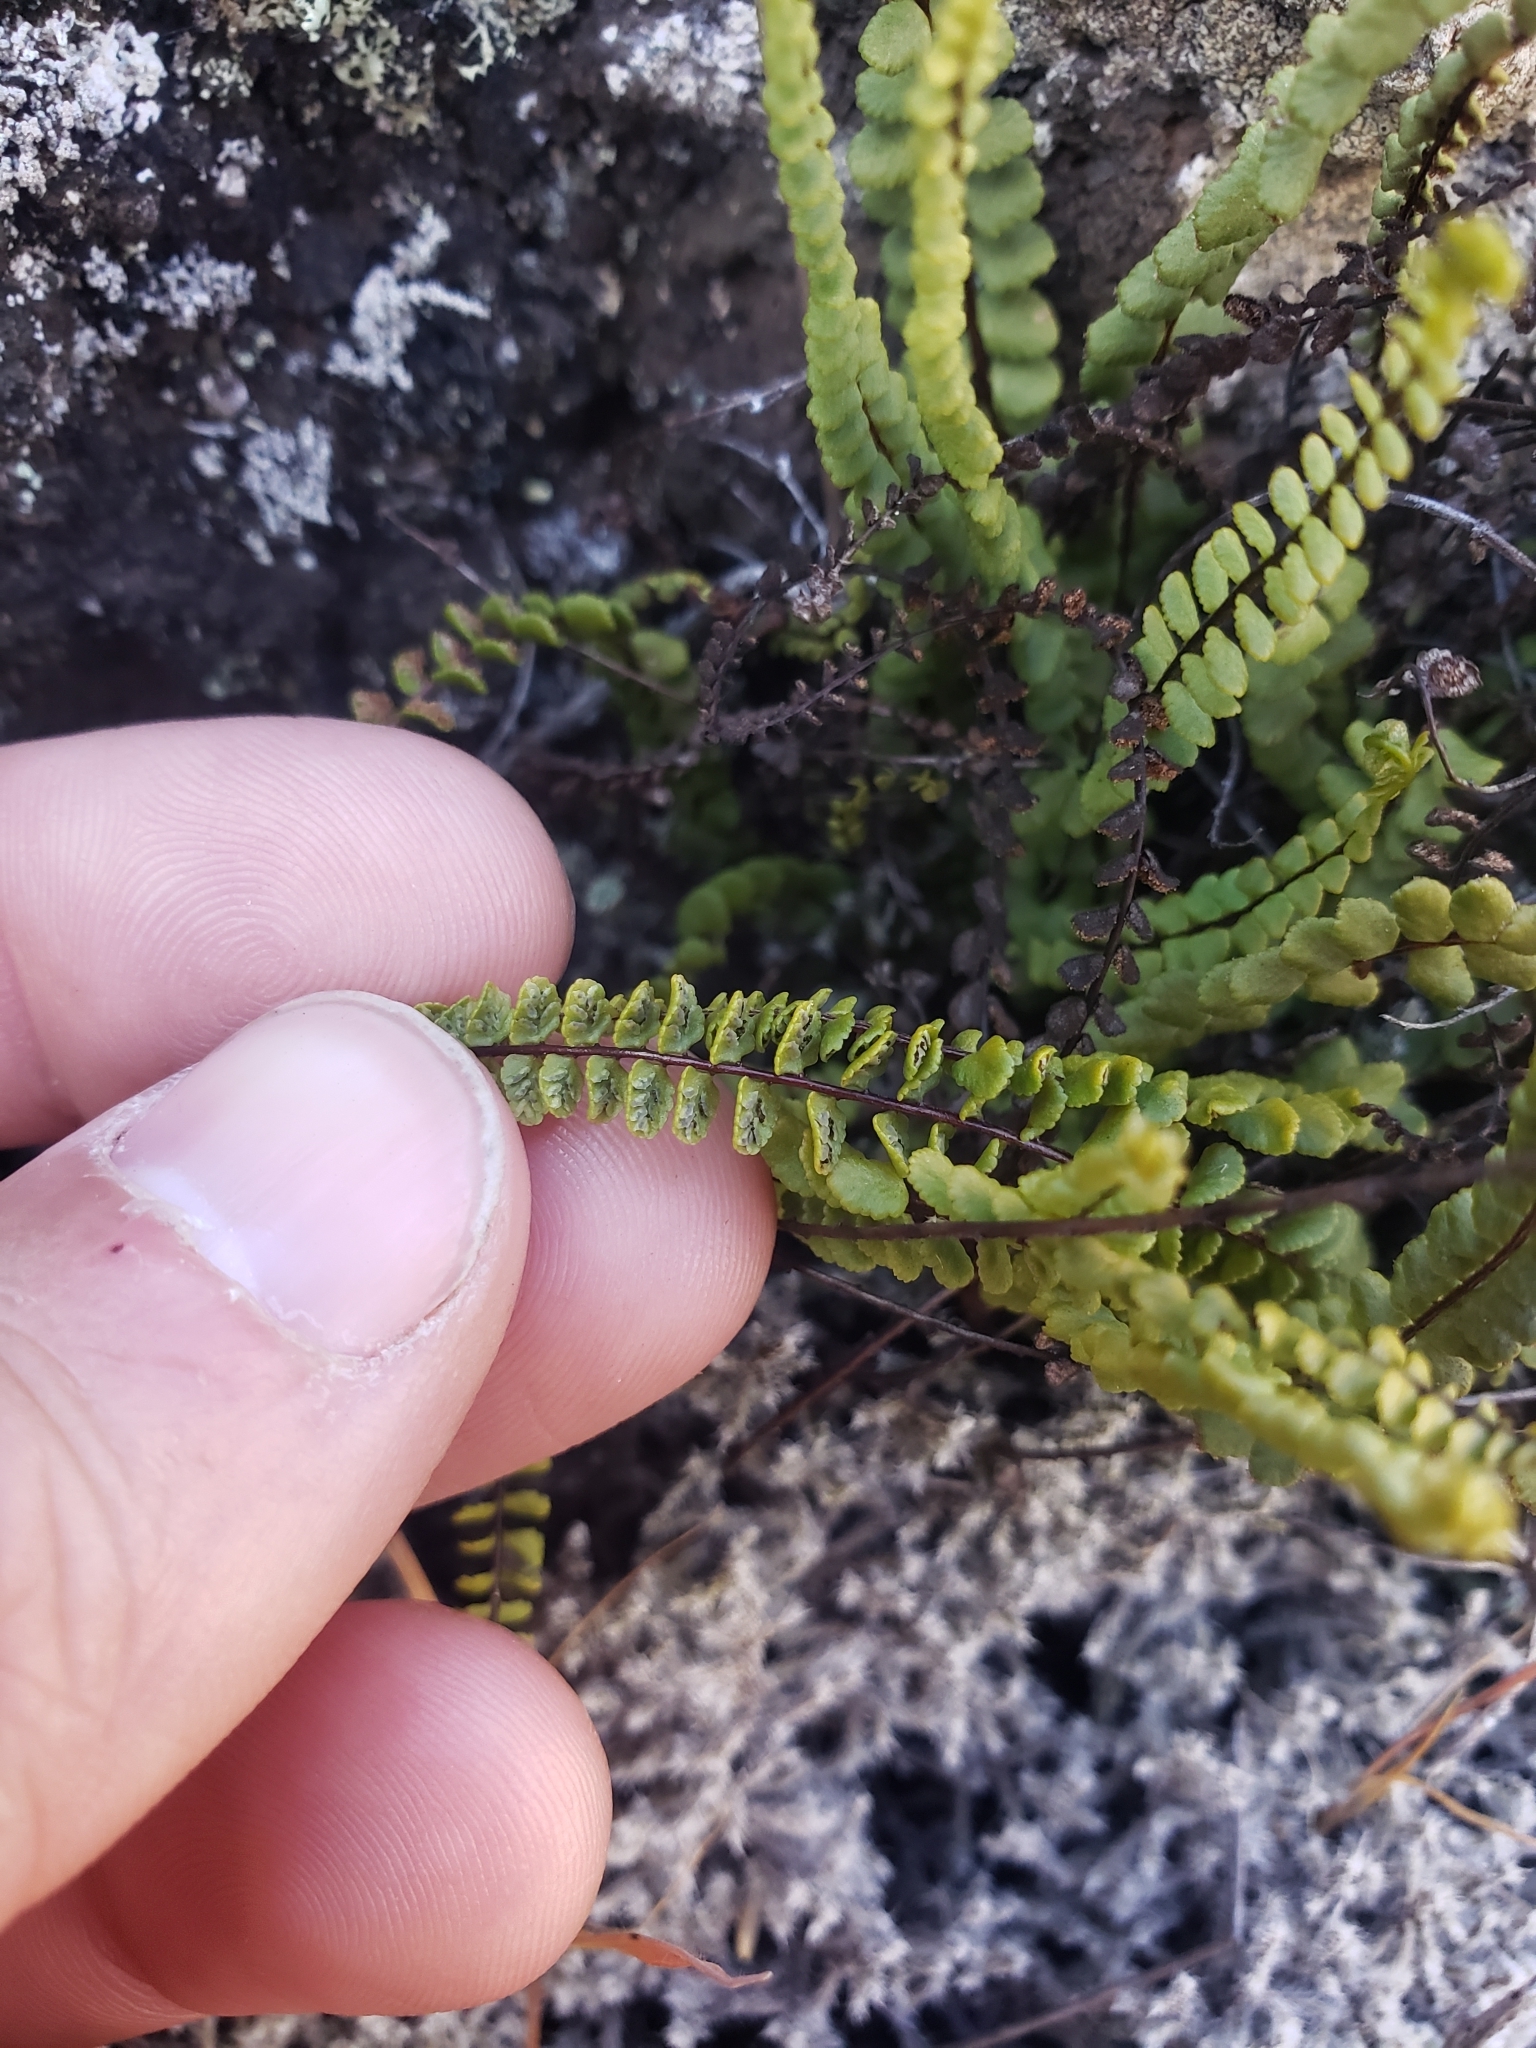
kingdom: Plantae
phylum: Tracheophyta
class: Polypodiopsida
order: Polypodiales
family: Aspleniaceae
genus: Asplenium
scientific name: Asplenium trichomanes
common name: Maidenhair spleenwort
